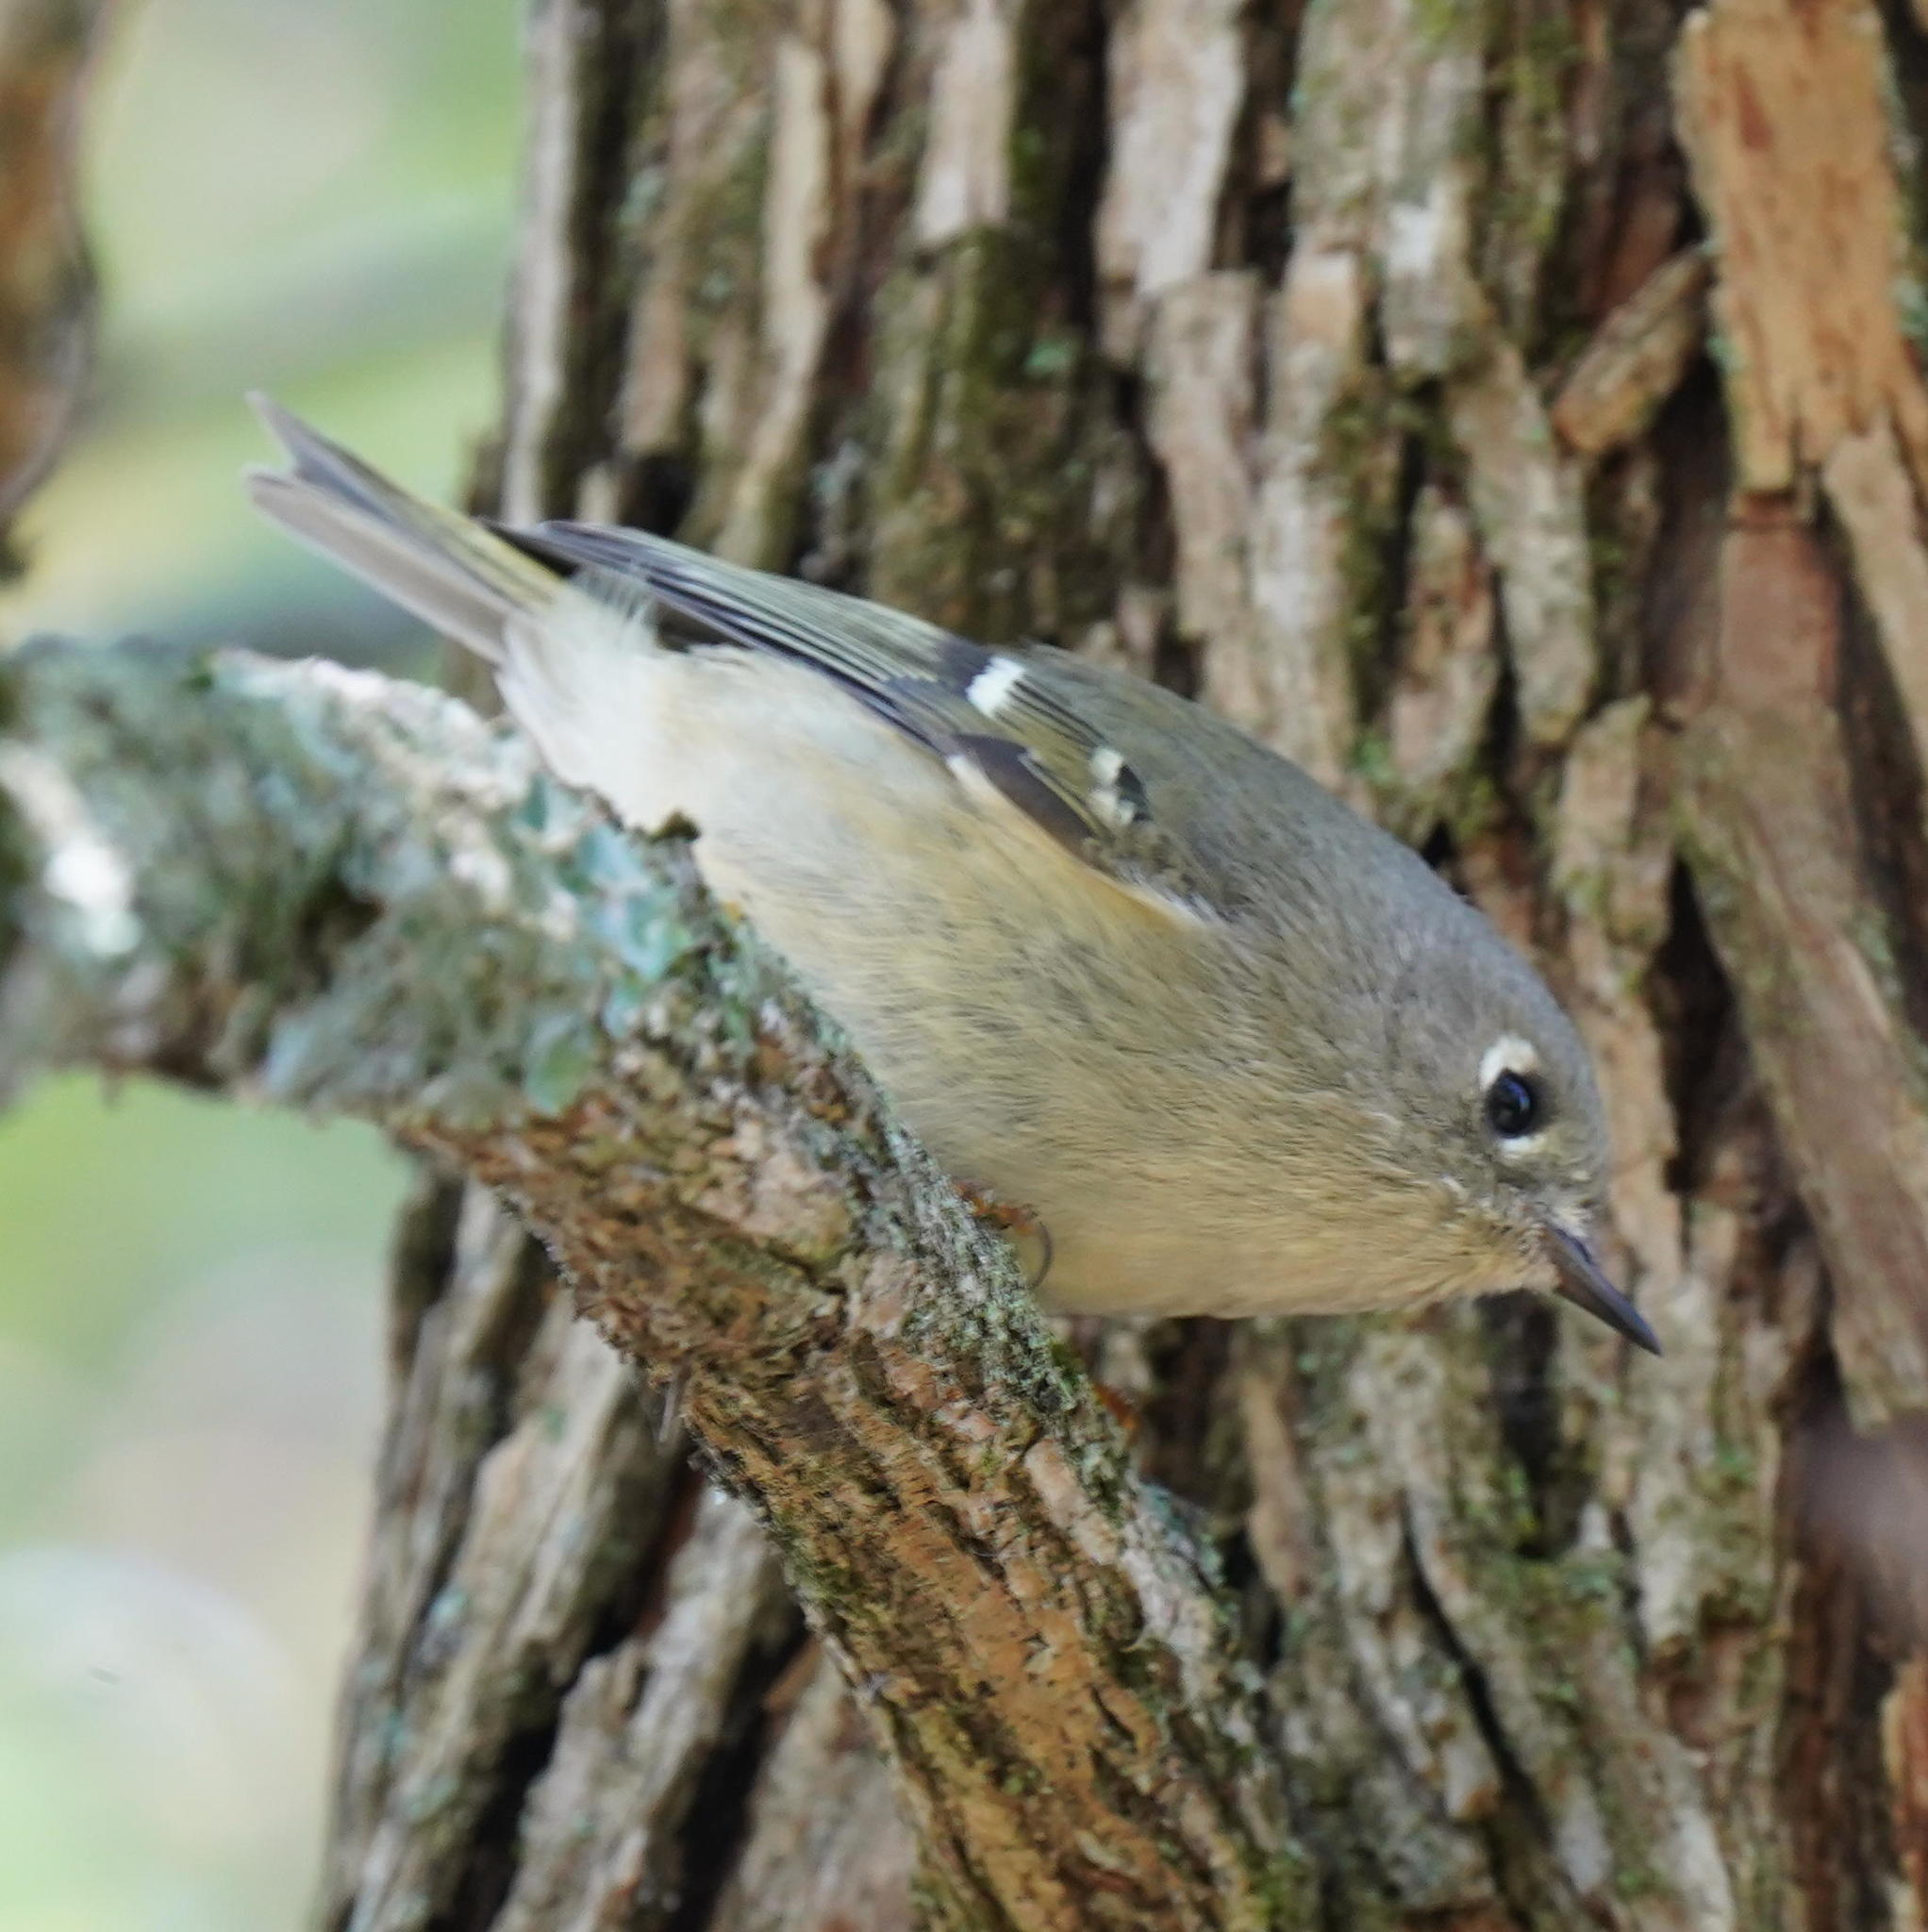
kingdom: Animalia
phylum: Chordata
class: Aves
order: Passeriformes
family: Regulidae
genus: Regulus
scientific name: Regulus calendula
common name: Ruby-crowned kinglet
